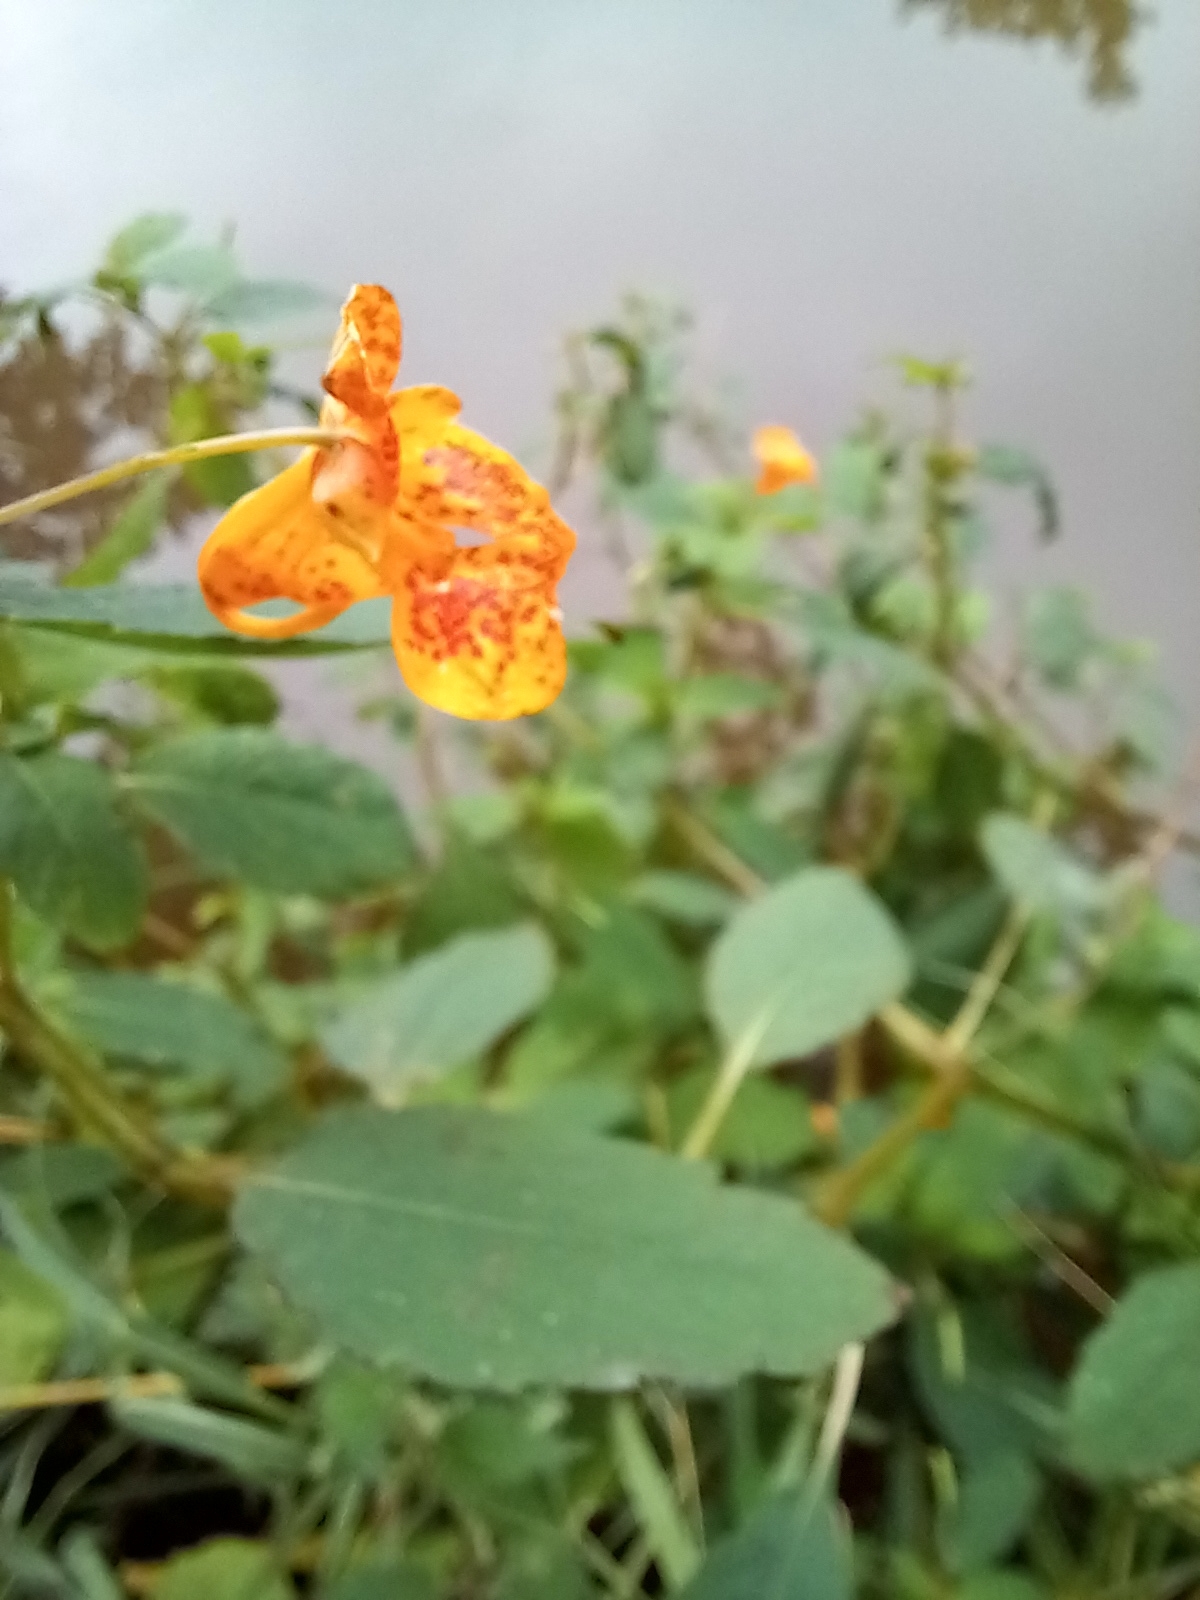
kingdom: Plantae
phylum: Tracheophyta
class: Magnoliopsida
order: Ericales
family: Balsaminaceae
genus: Impatiens
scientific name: Impatiens capensis
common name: Orange balsam
